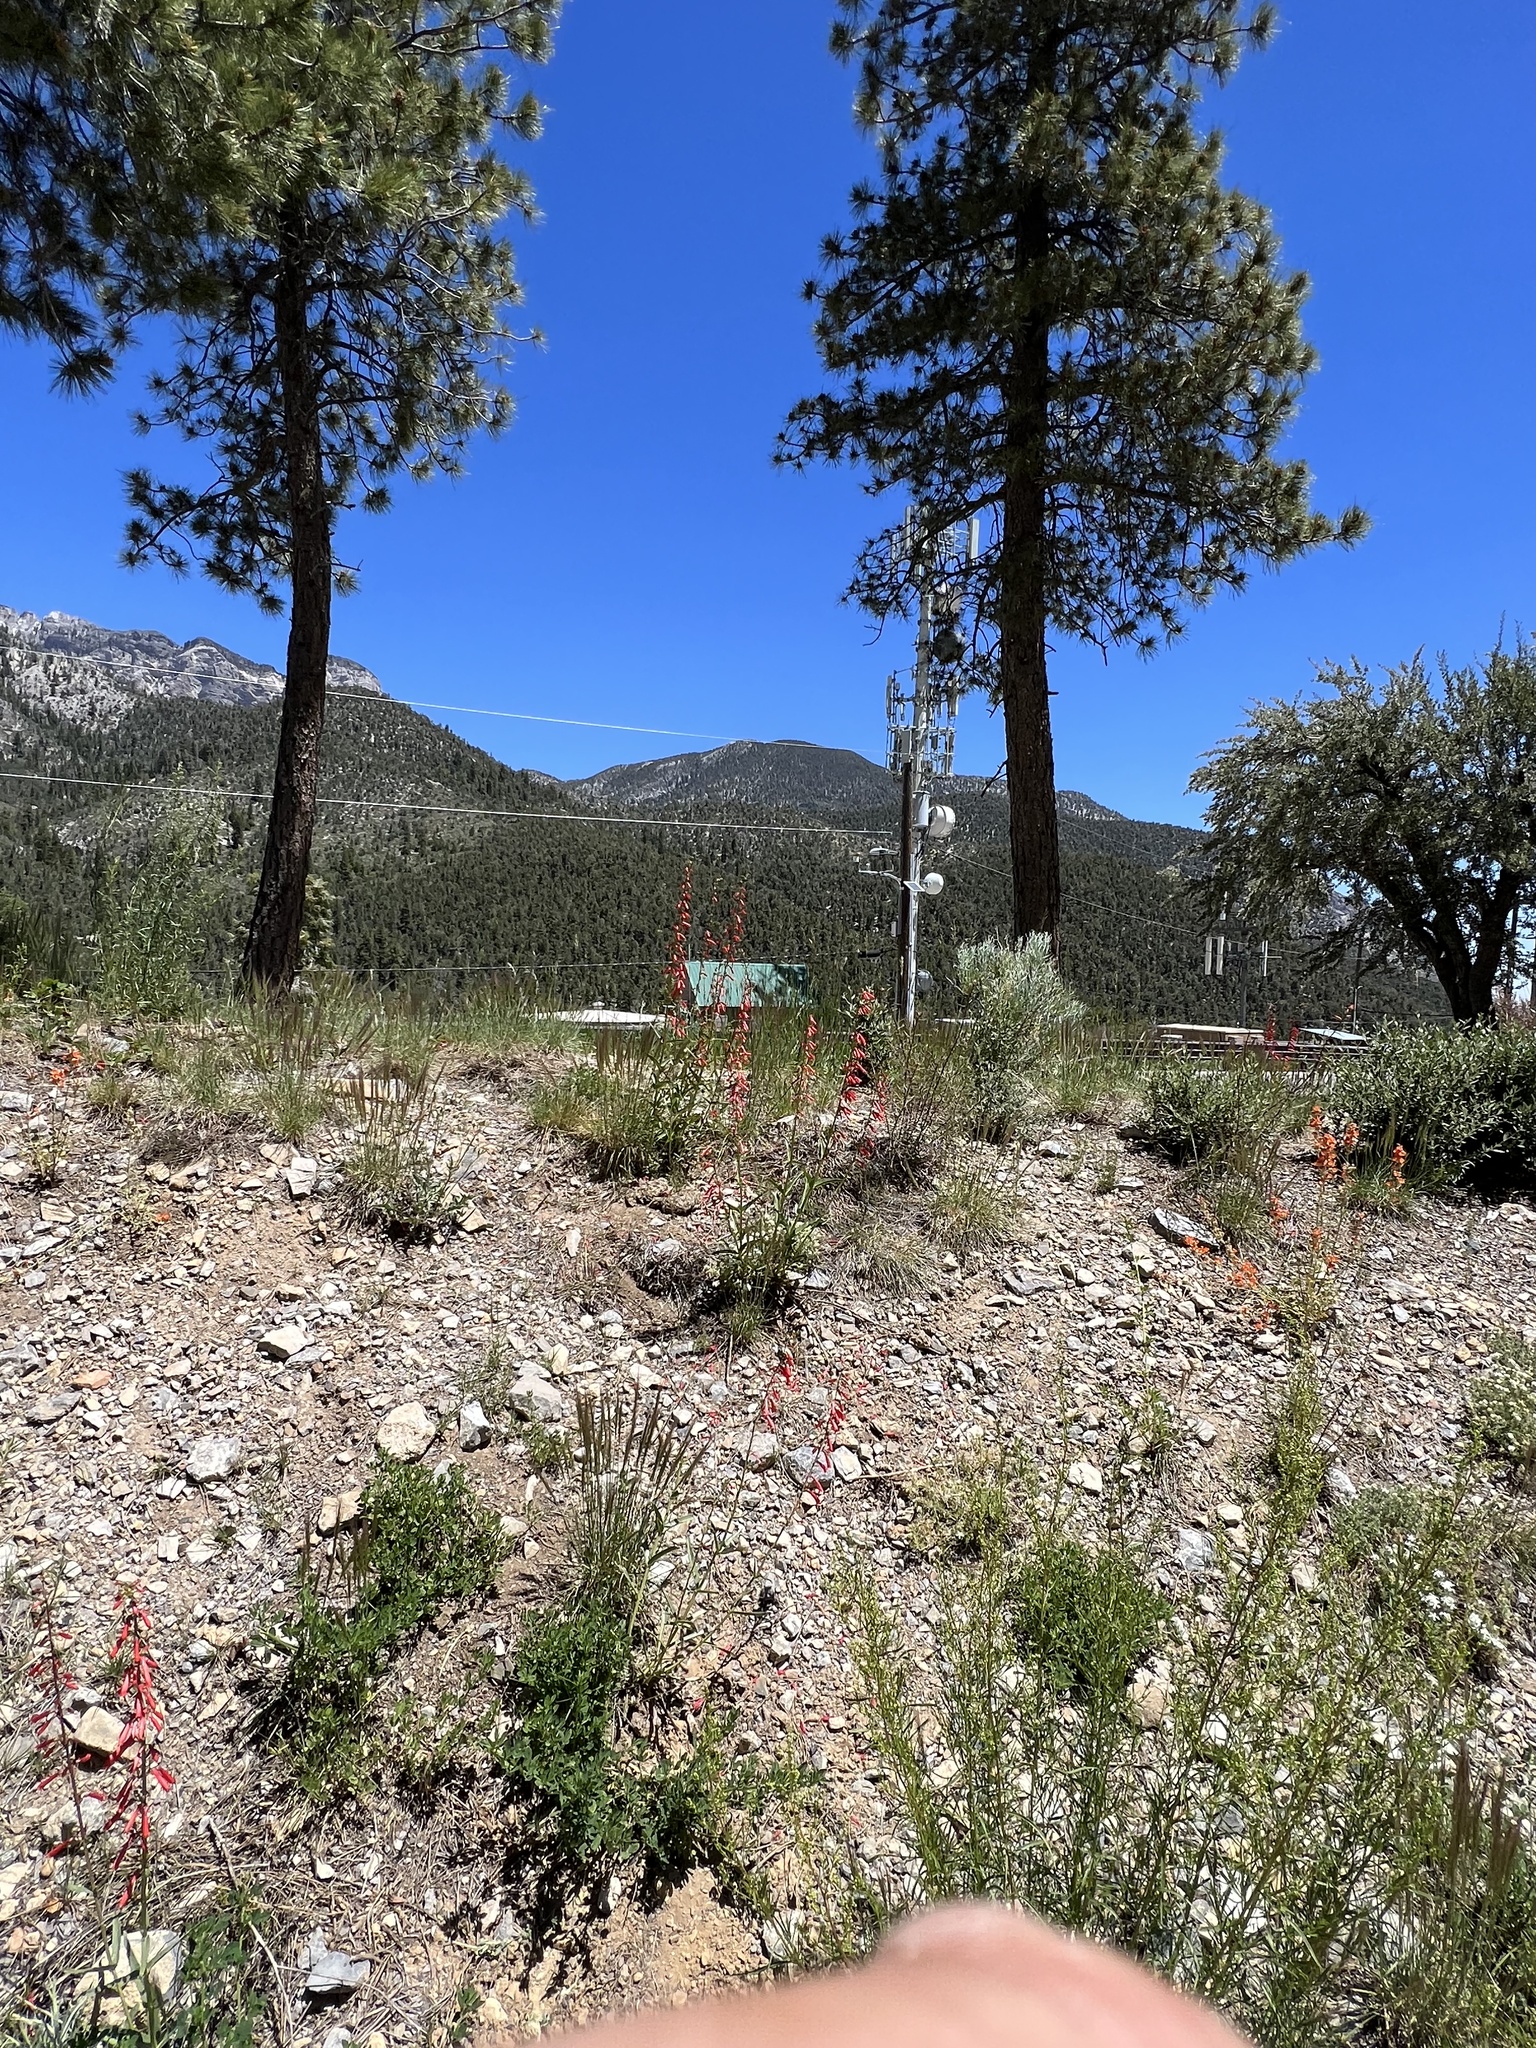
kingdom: Plantae
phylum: Tracheophyta
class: Magnoliopsida
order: Lamiales
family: Plantaginaceae
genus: Penstemon
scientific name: Penstemon eatonii
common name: Eaton's penstemon
